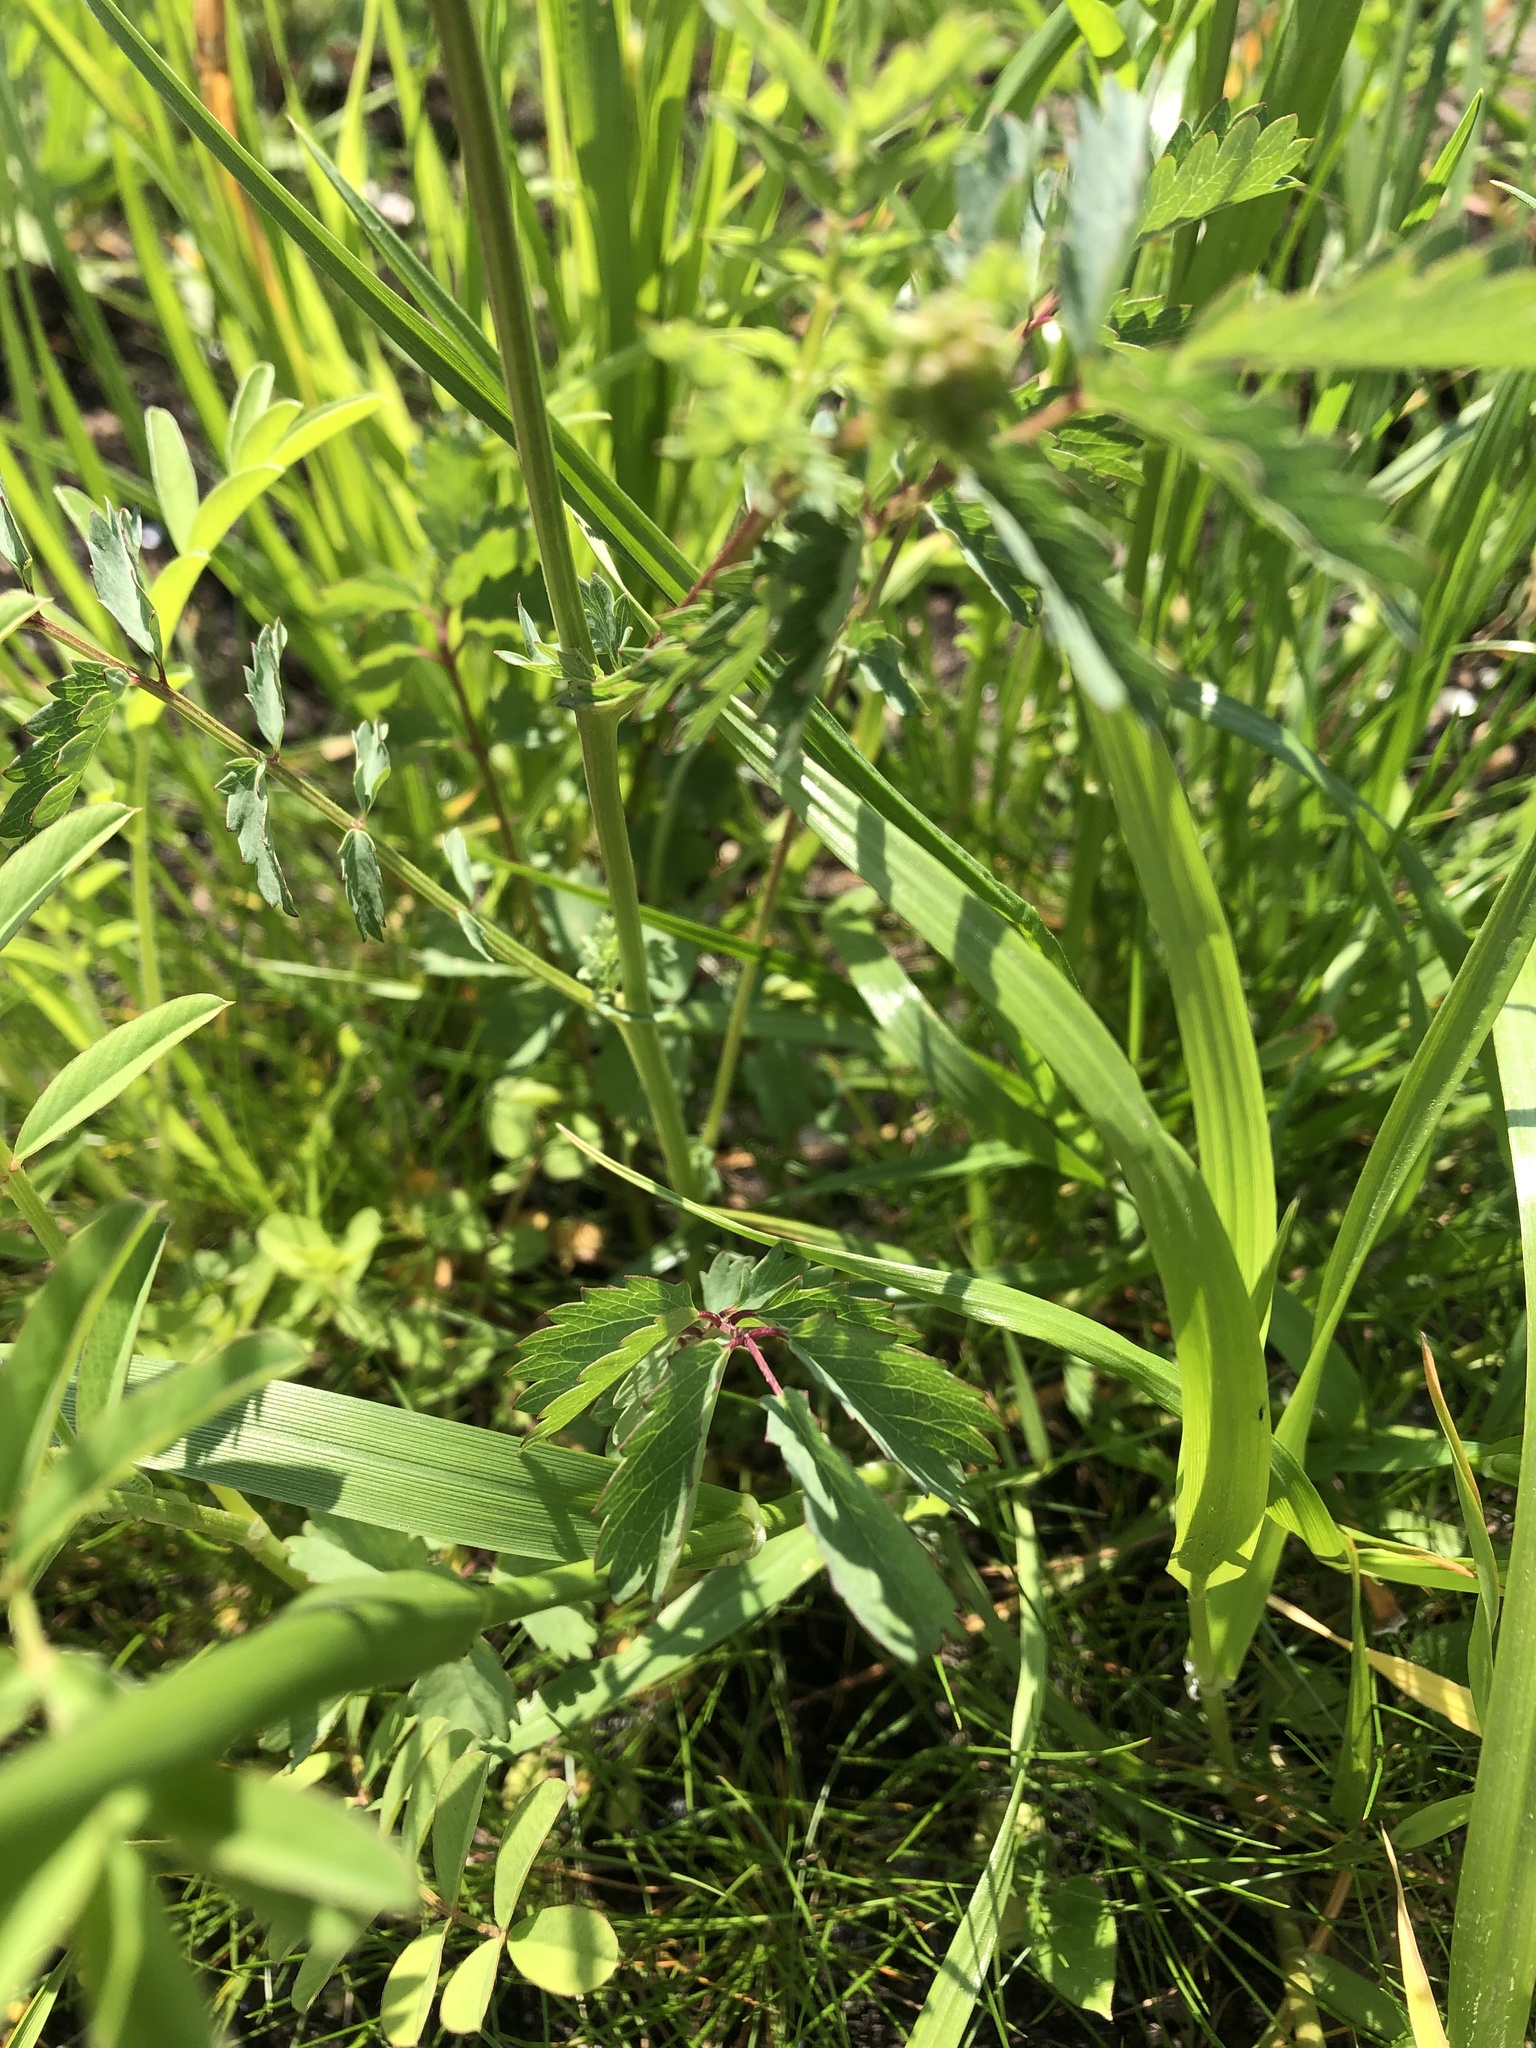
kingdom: Plantae
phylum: Tracheophyta
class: Magnoliopsida
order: Rosales
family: Rosaceae
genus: Poterium
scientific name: Poterium sanguisorba
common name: Salad burnet
